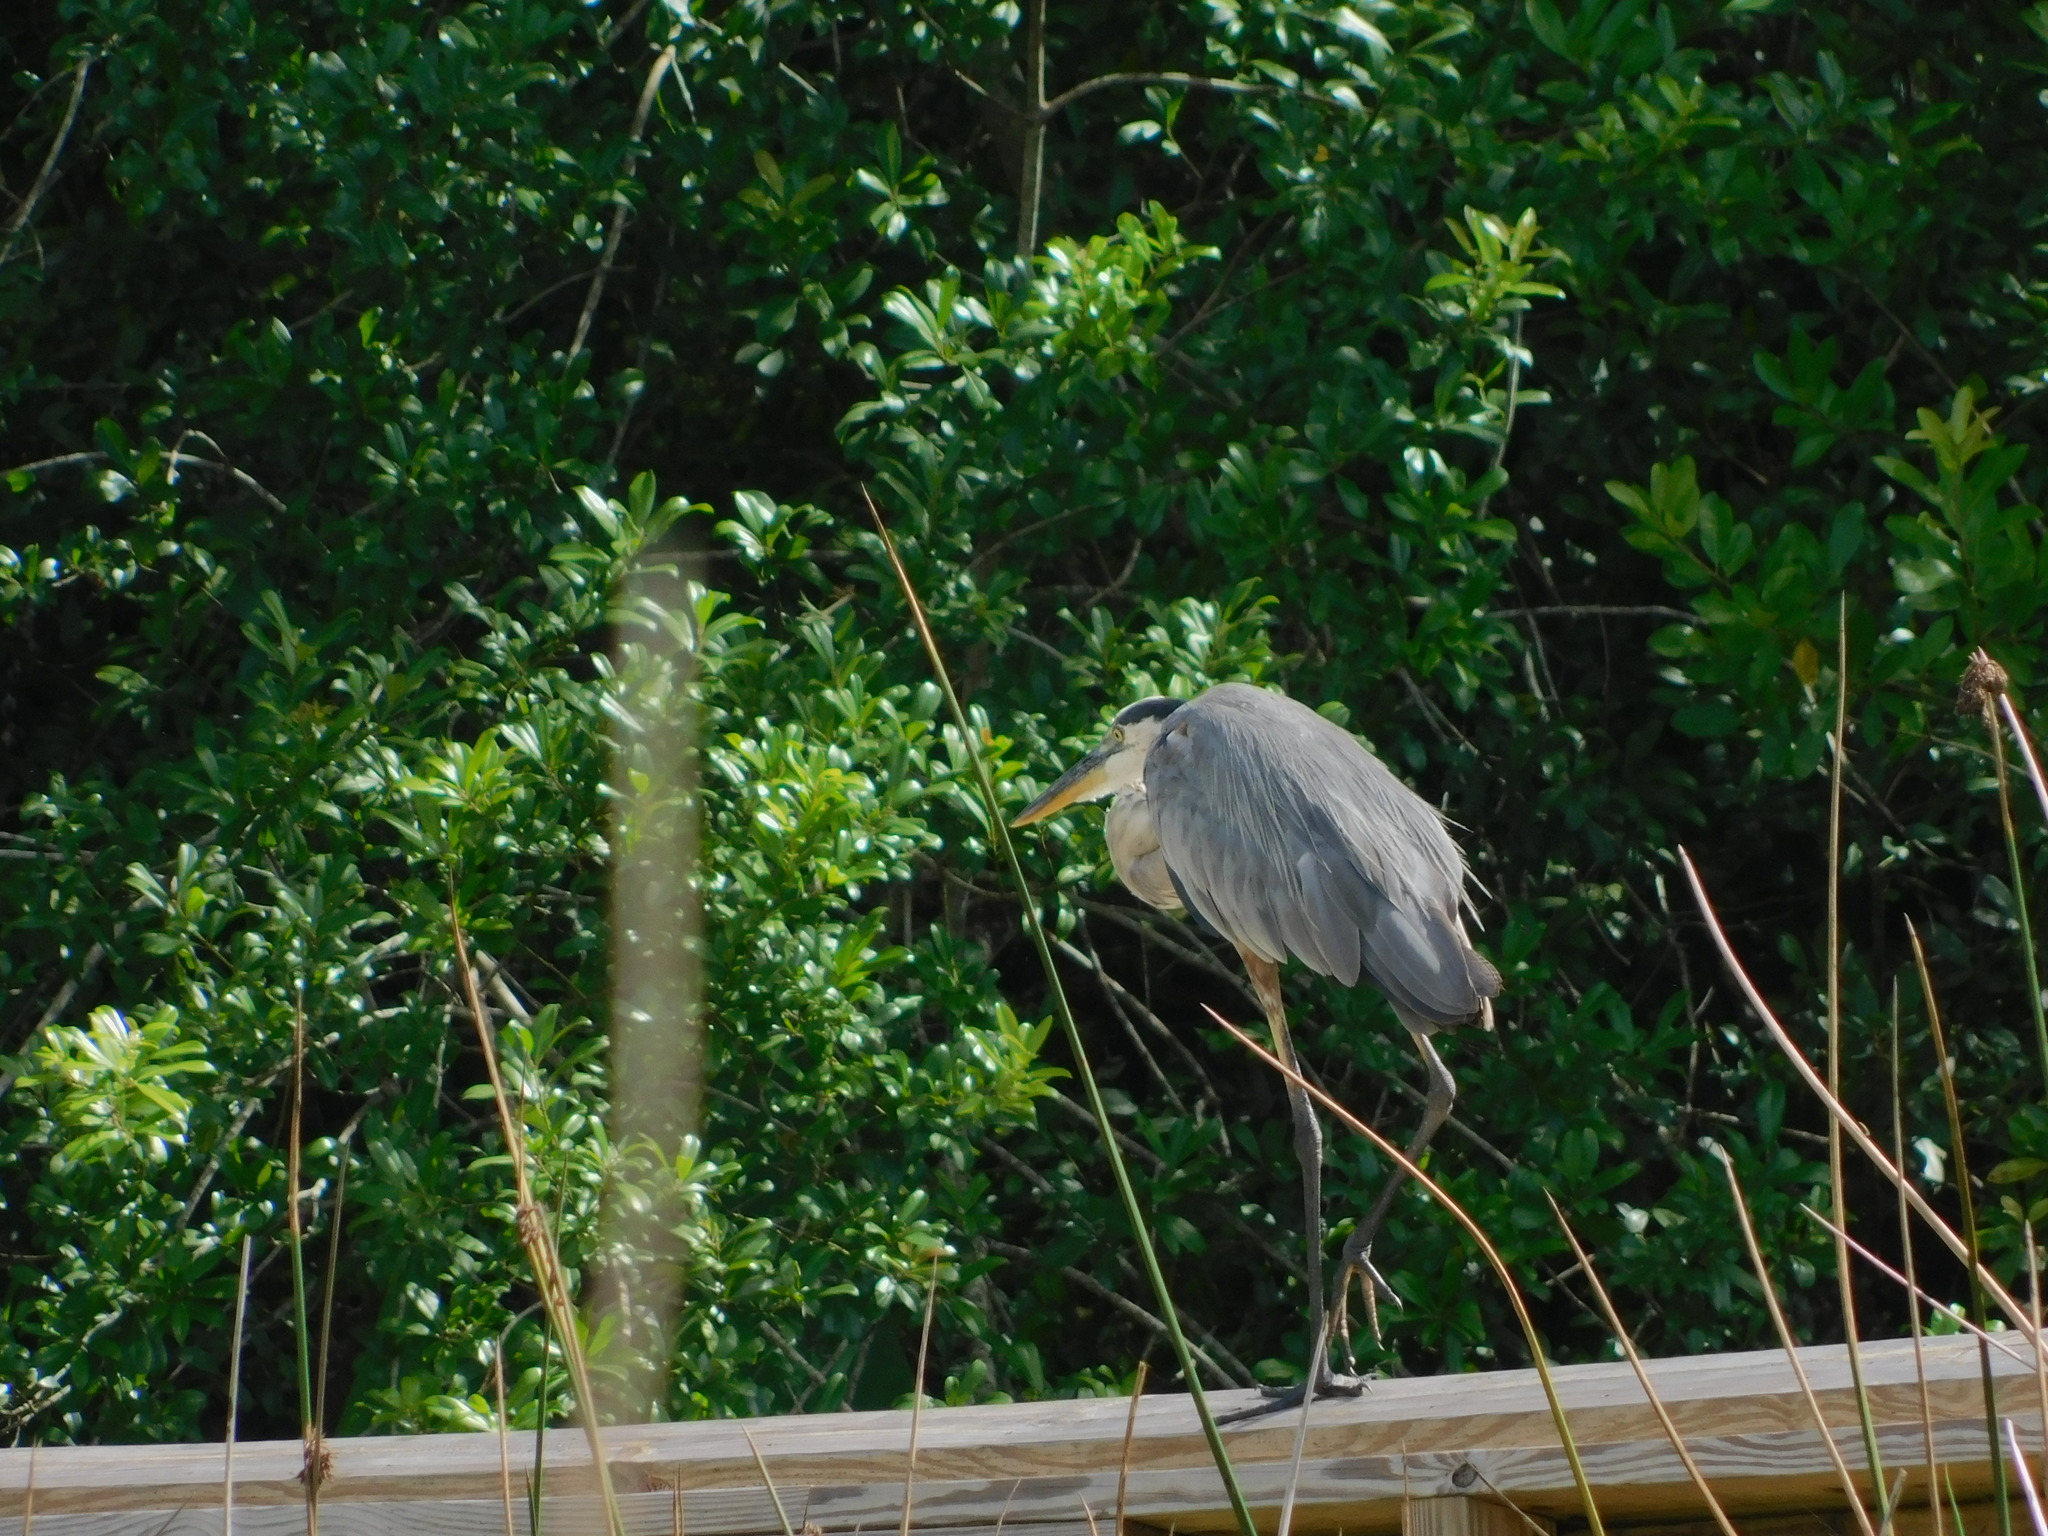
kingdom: Animalia
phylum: Chordata
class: Aves
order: Pelecaniformes
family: Ardeidae
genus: Ardea
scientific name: Ardea herodias
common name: Great blue heron
